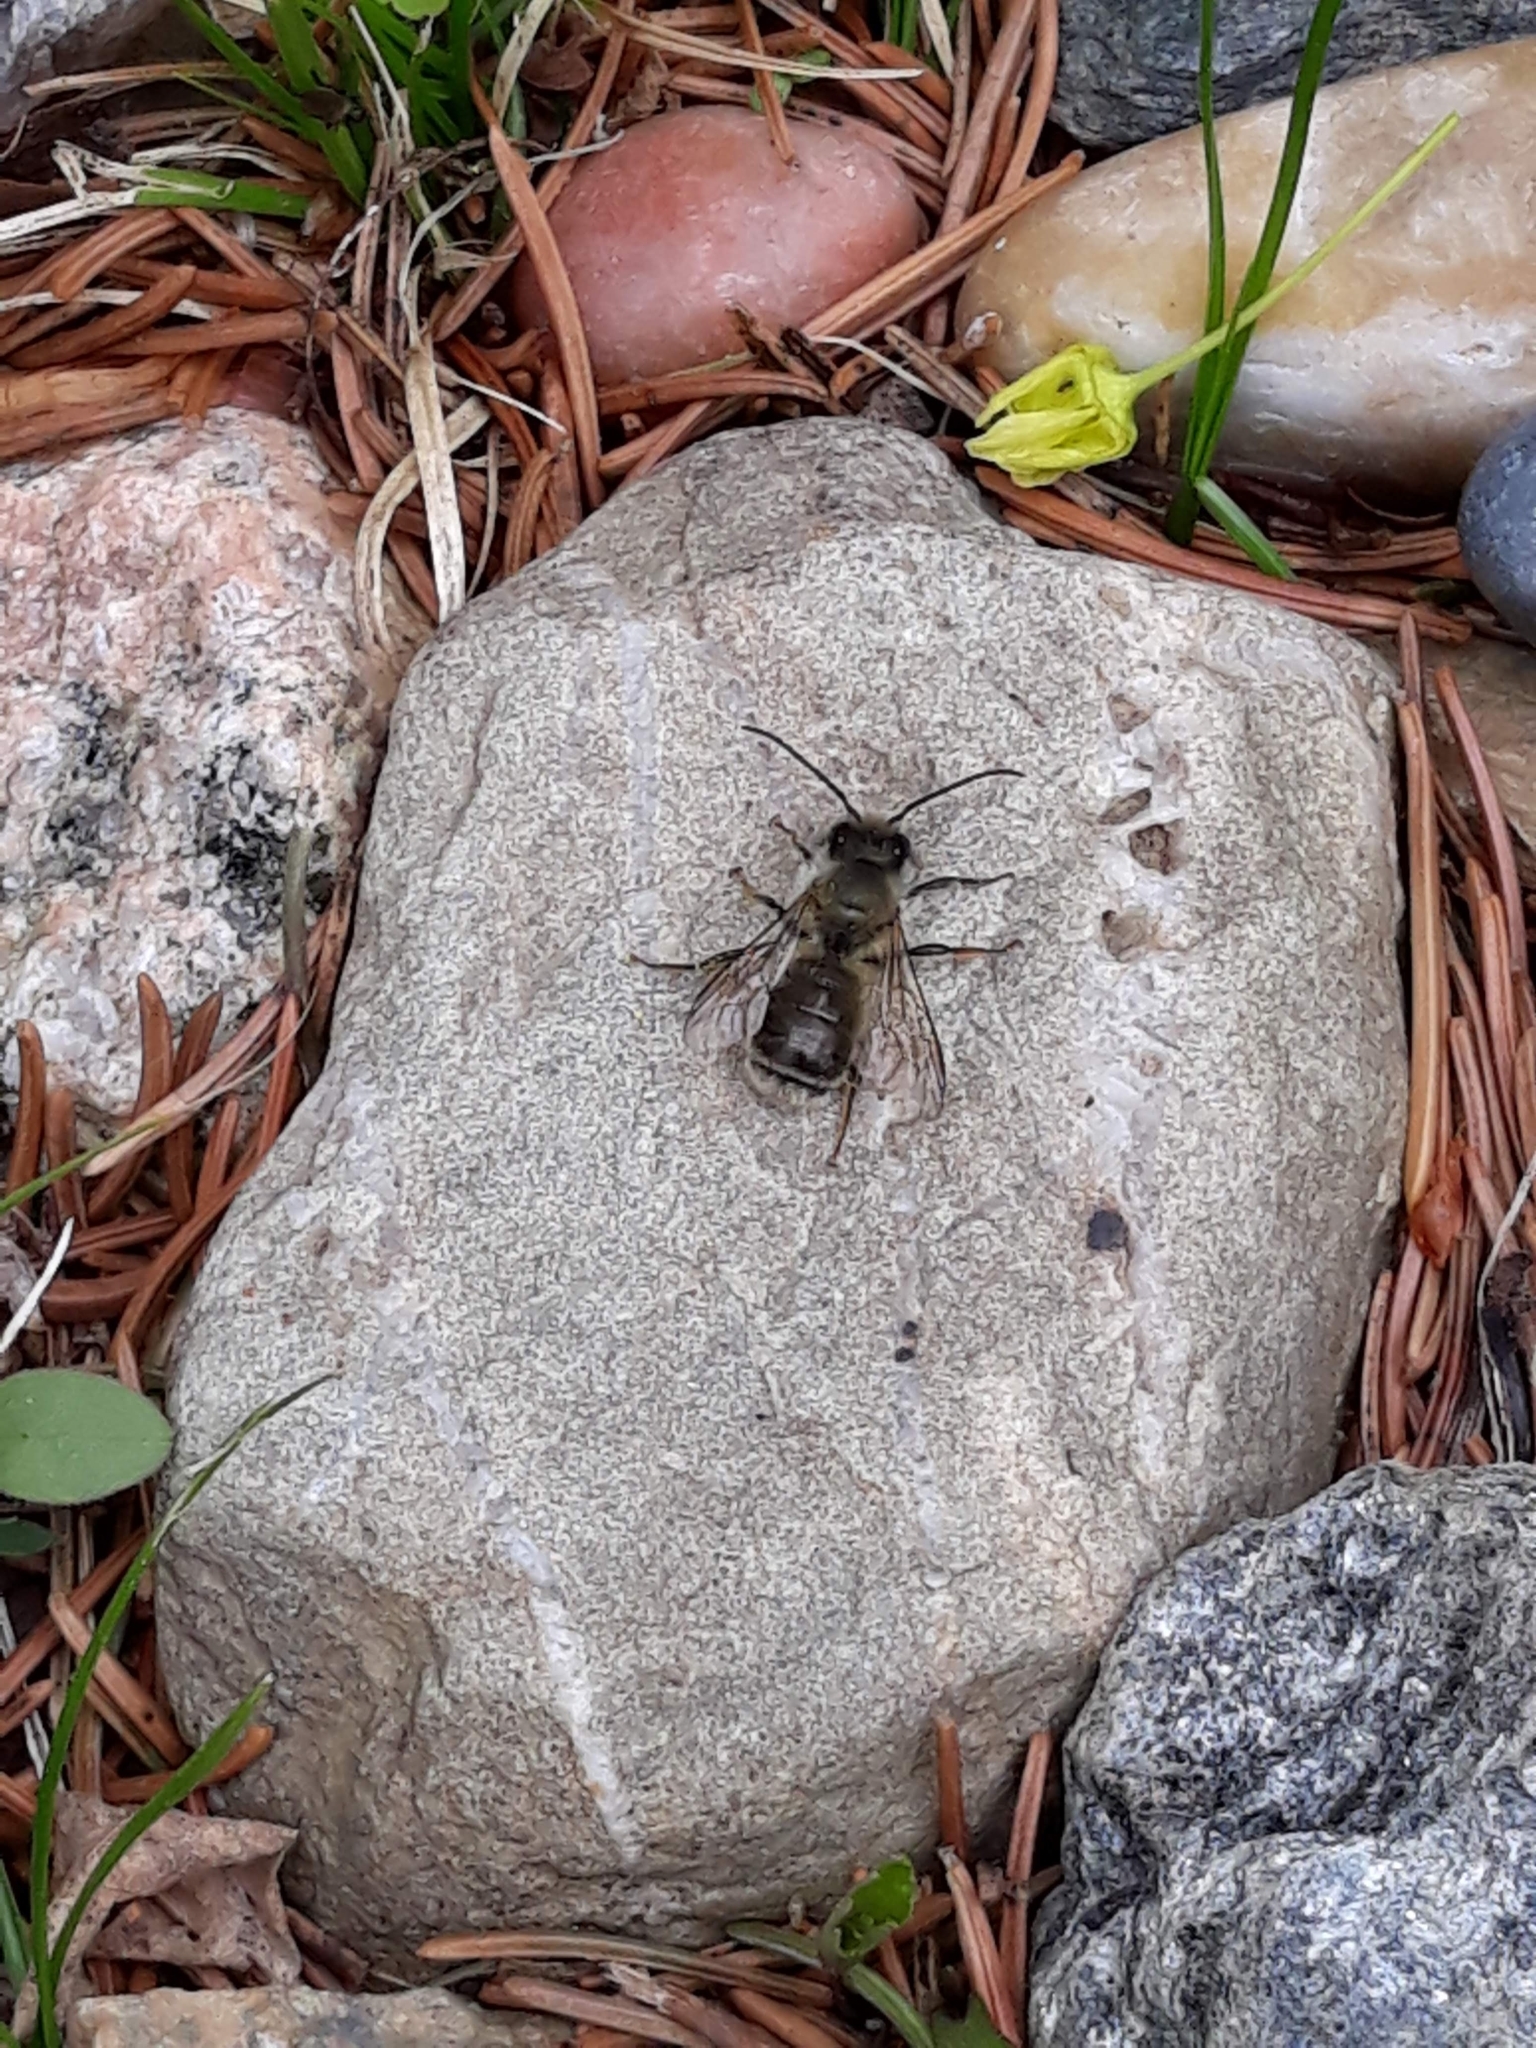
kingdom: Animalia
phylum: Arthropoda
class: Insecta
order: Hymenoptera
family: Megachilidae
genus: Osmia
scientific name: Osmia cornifrons
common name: Horn-faced bee
